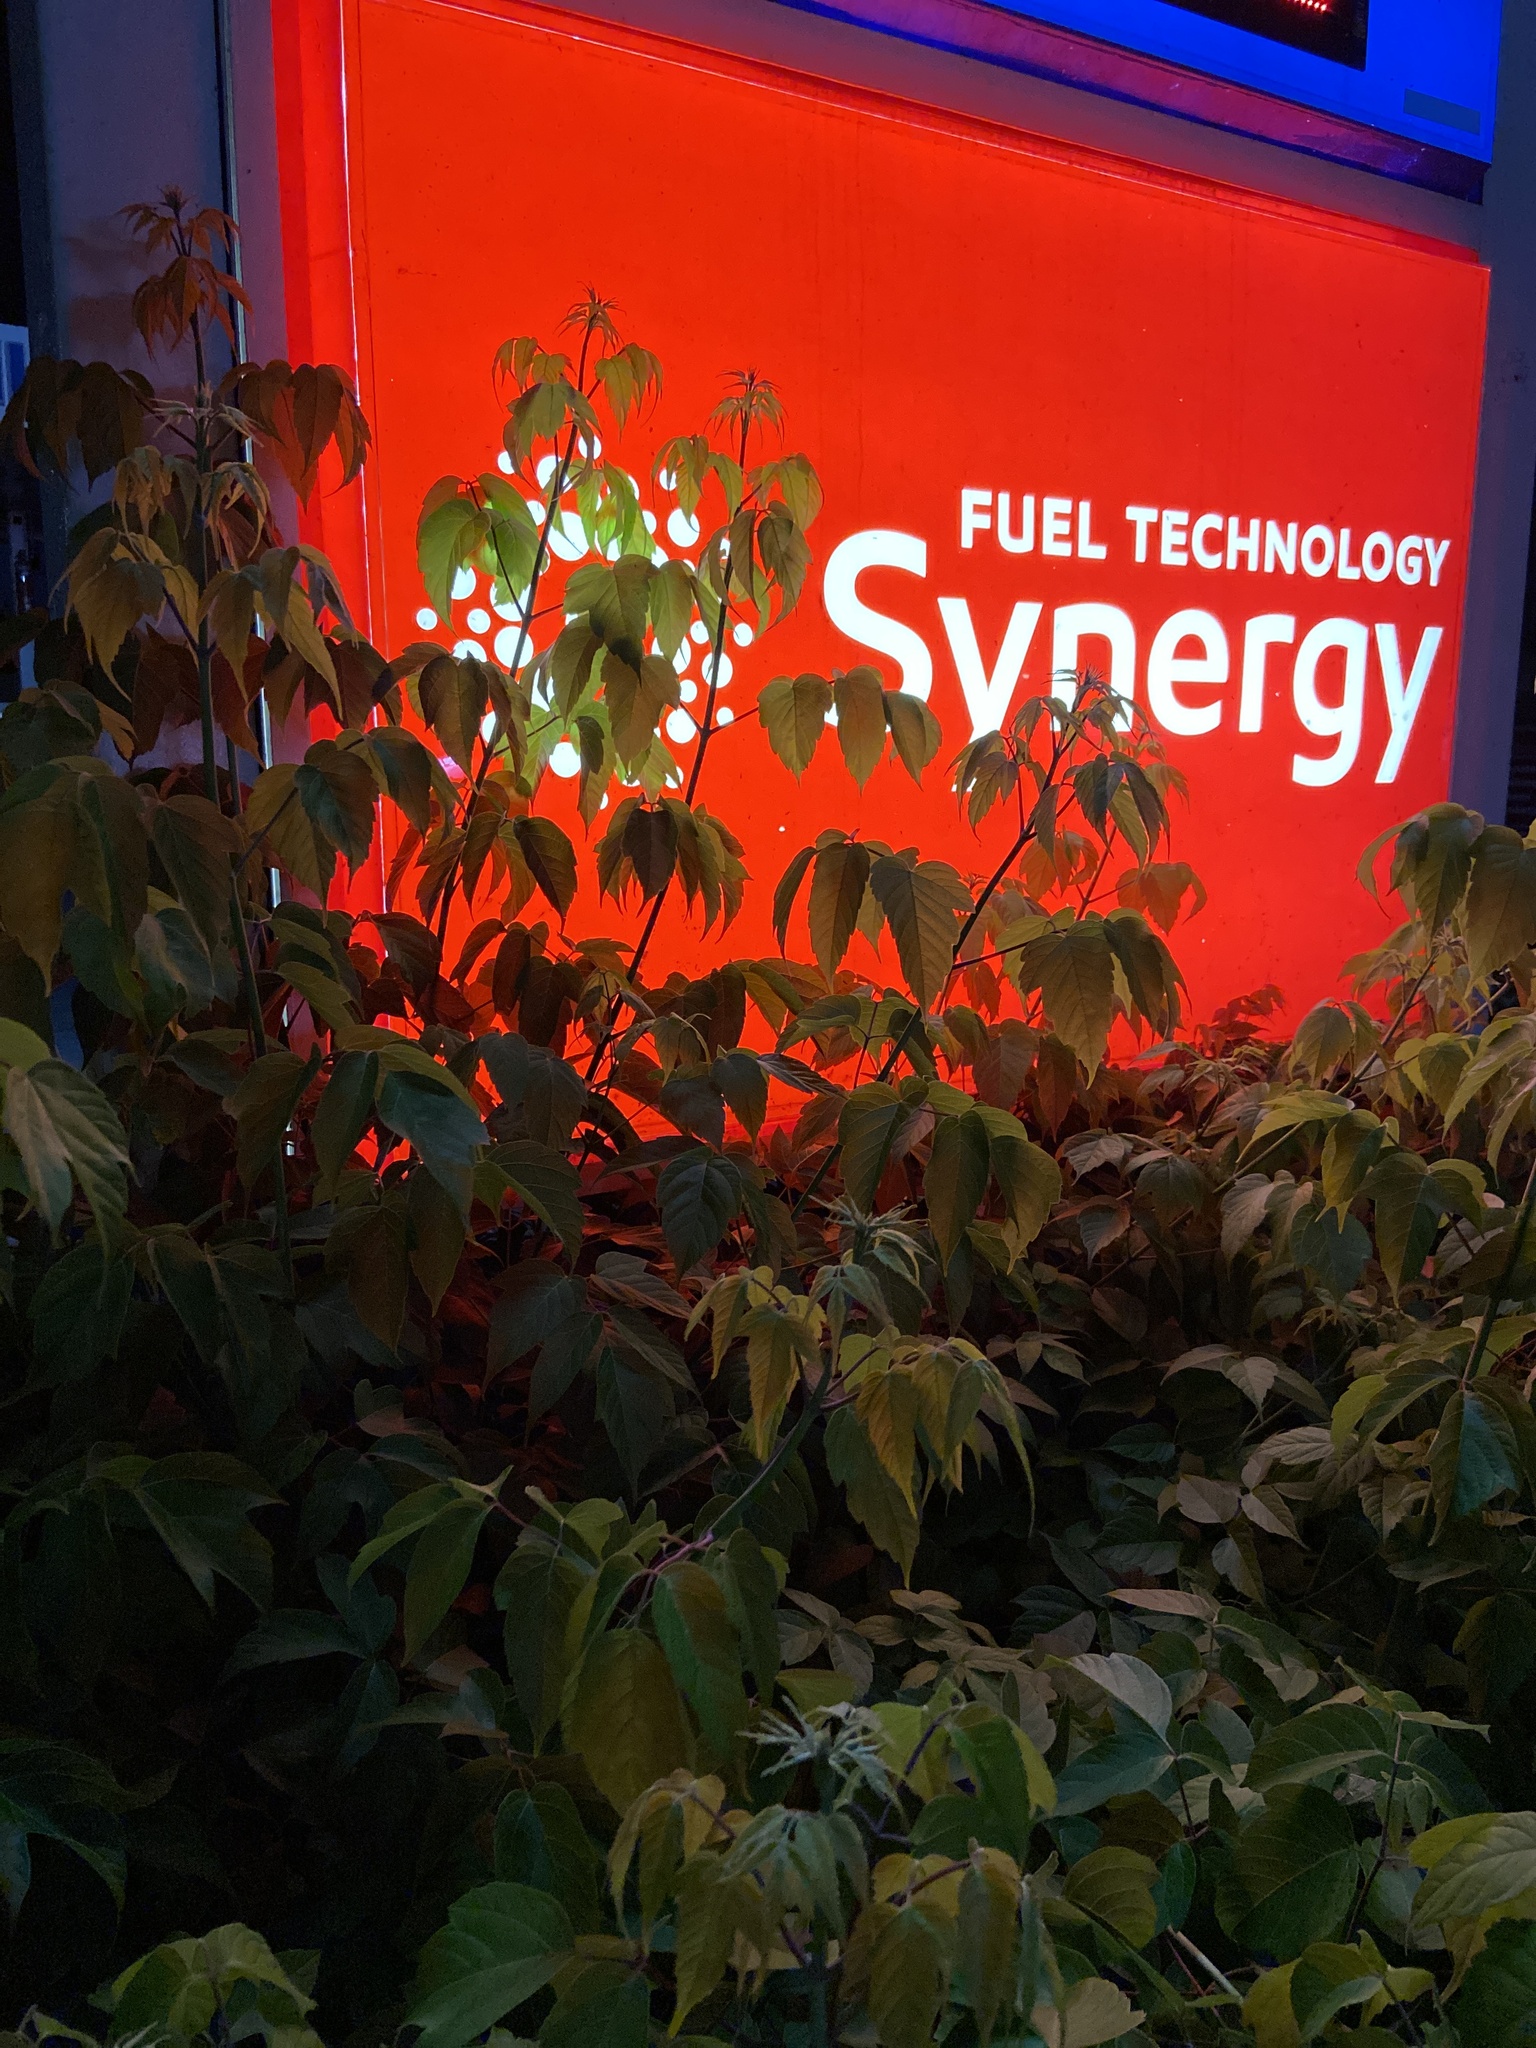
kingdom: Plantae
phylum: Tracheophyta
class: Magnoliopsida
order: Sapindales
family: Sapindaceae
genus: Acer
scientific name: Acer negundo
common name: Ashleaf maple
